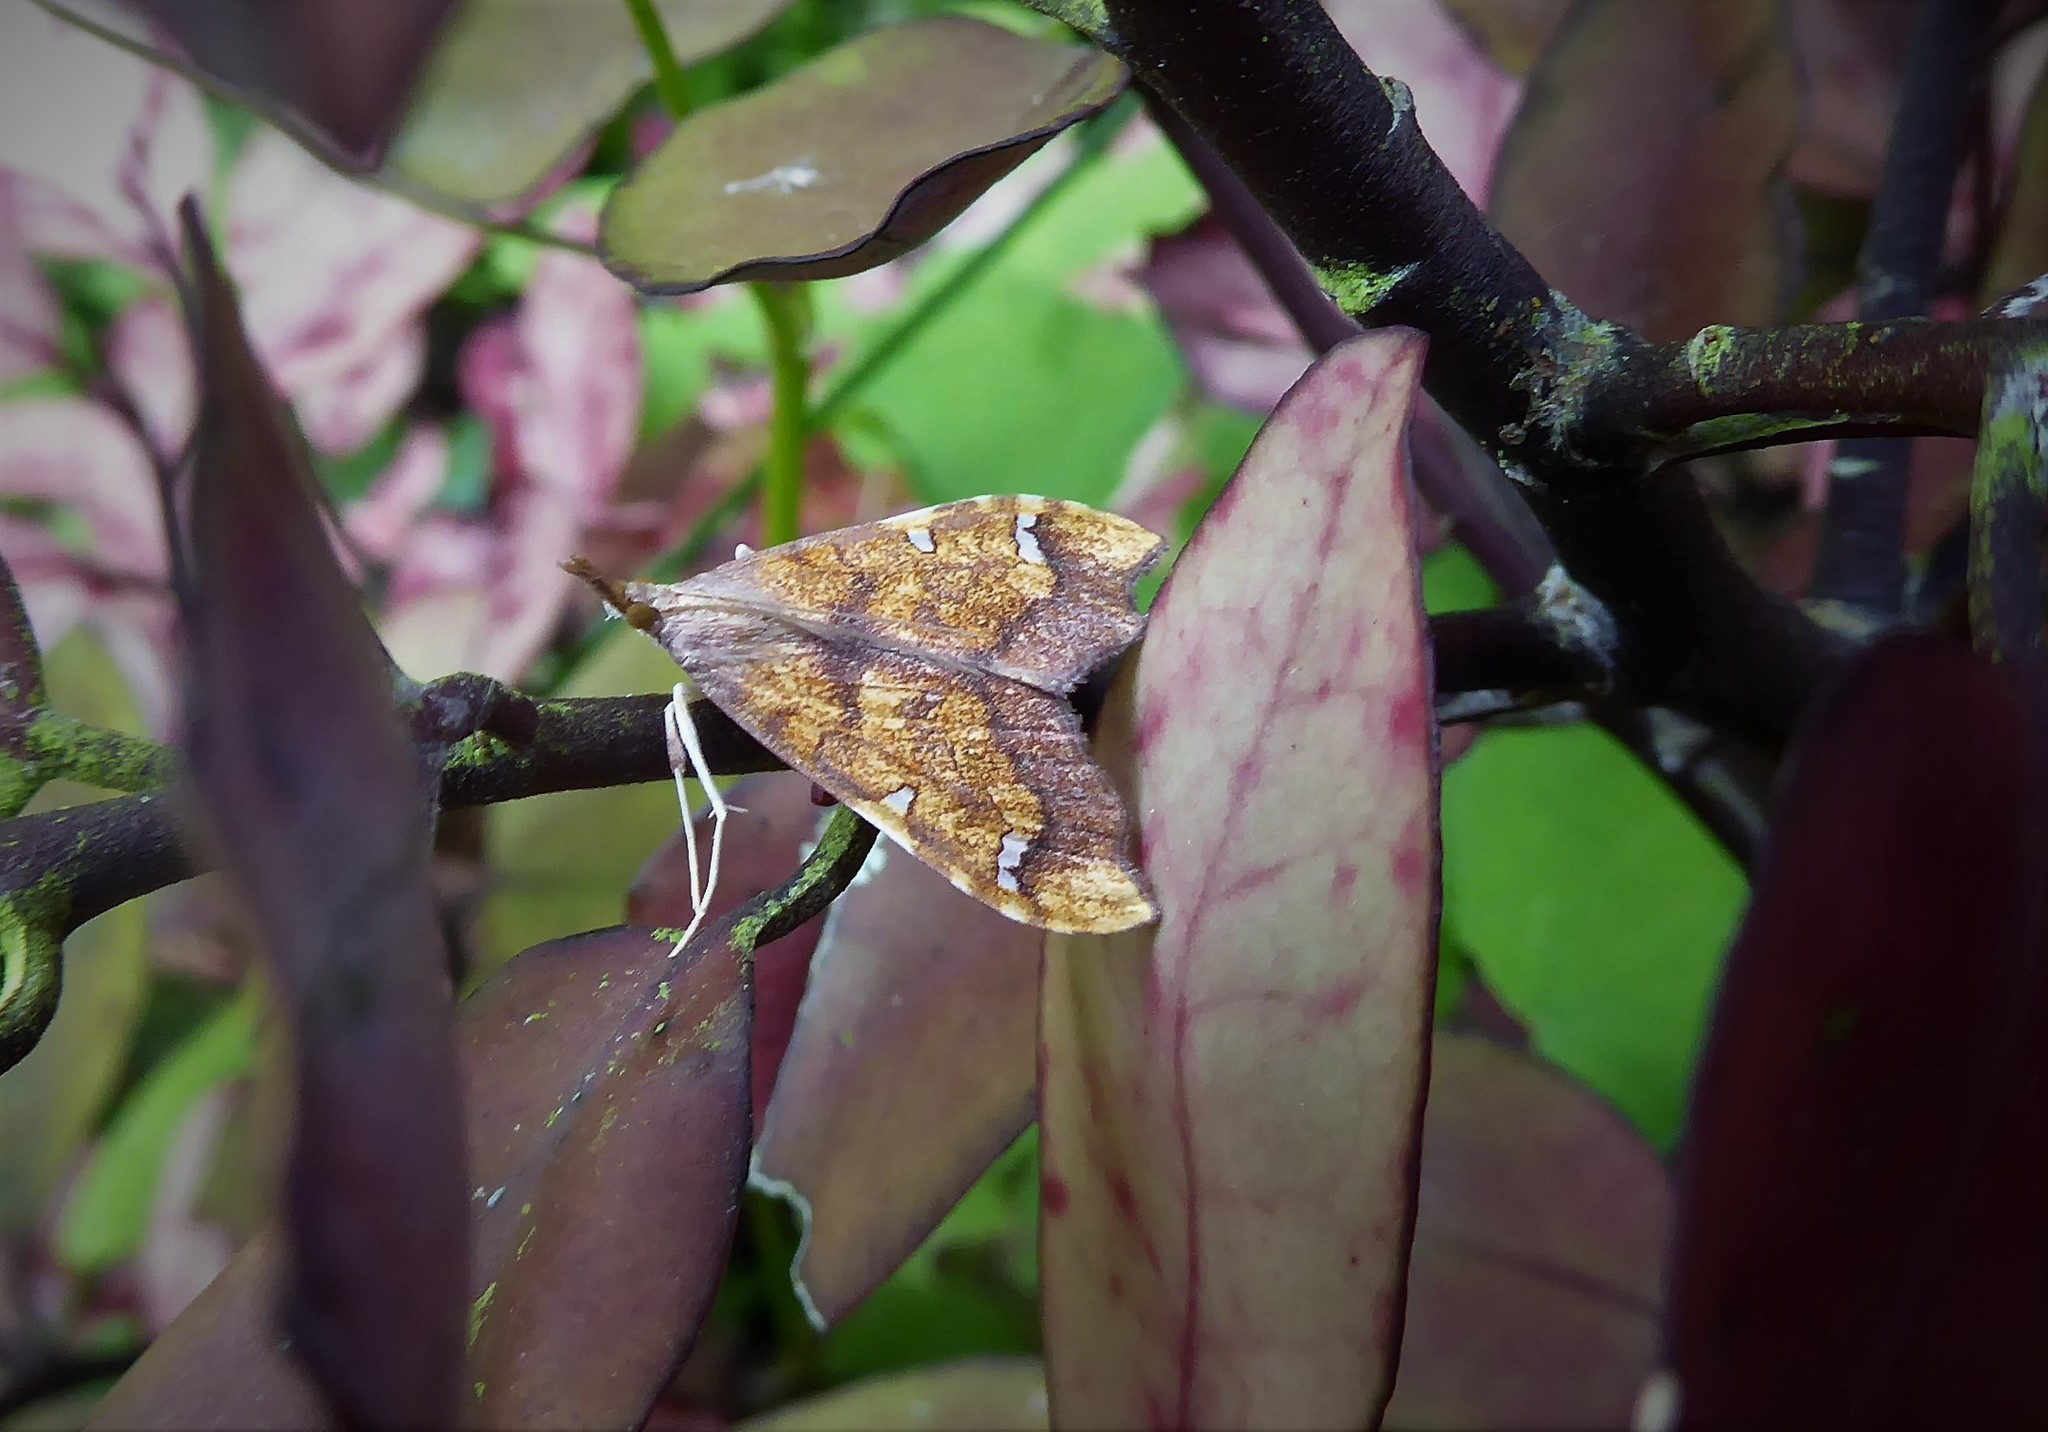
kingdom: Animalia
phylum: Arthropoda
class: Insecta
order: Lepidoptera
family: Crambidae
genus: Deana
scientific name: Deana hybreasalis
